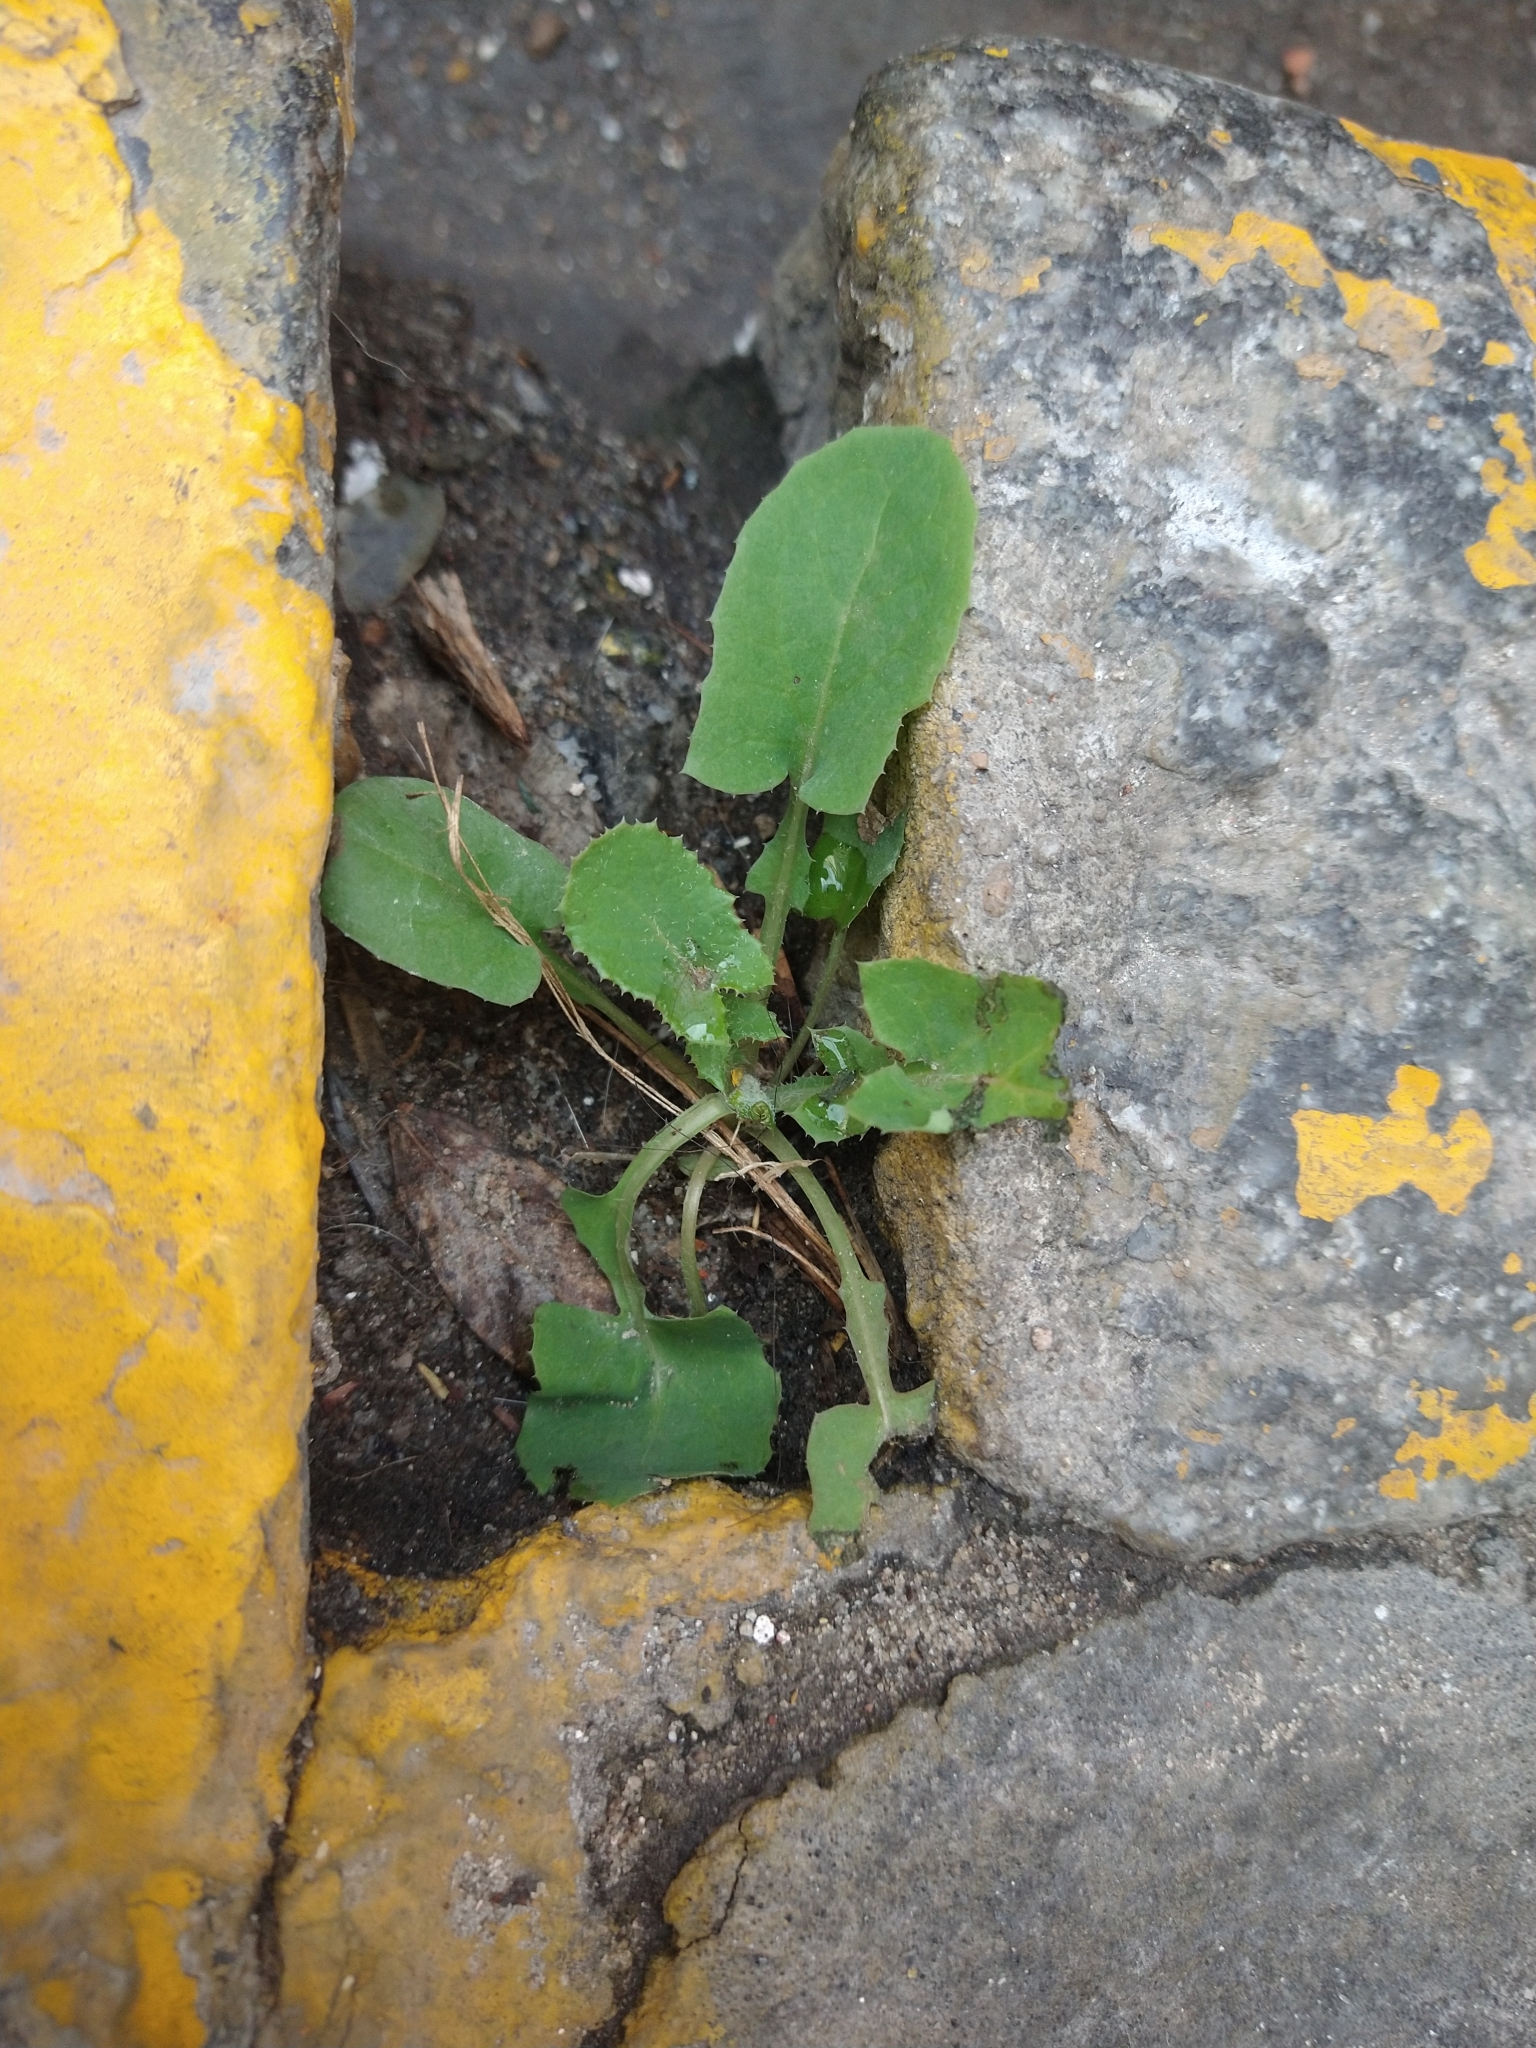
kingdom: Plantae
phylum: Tracheophyta
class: Magnoliopsida
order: Asterales
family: Asteraceae
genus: Sonchus
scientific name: Sonchus oleraceus
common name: Common sowthistle
